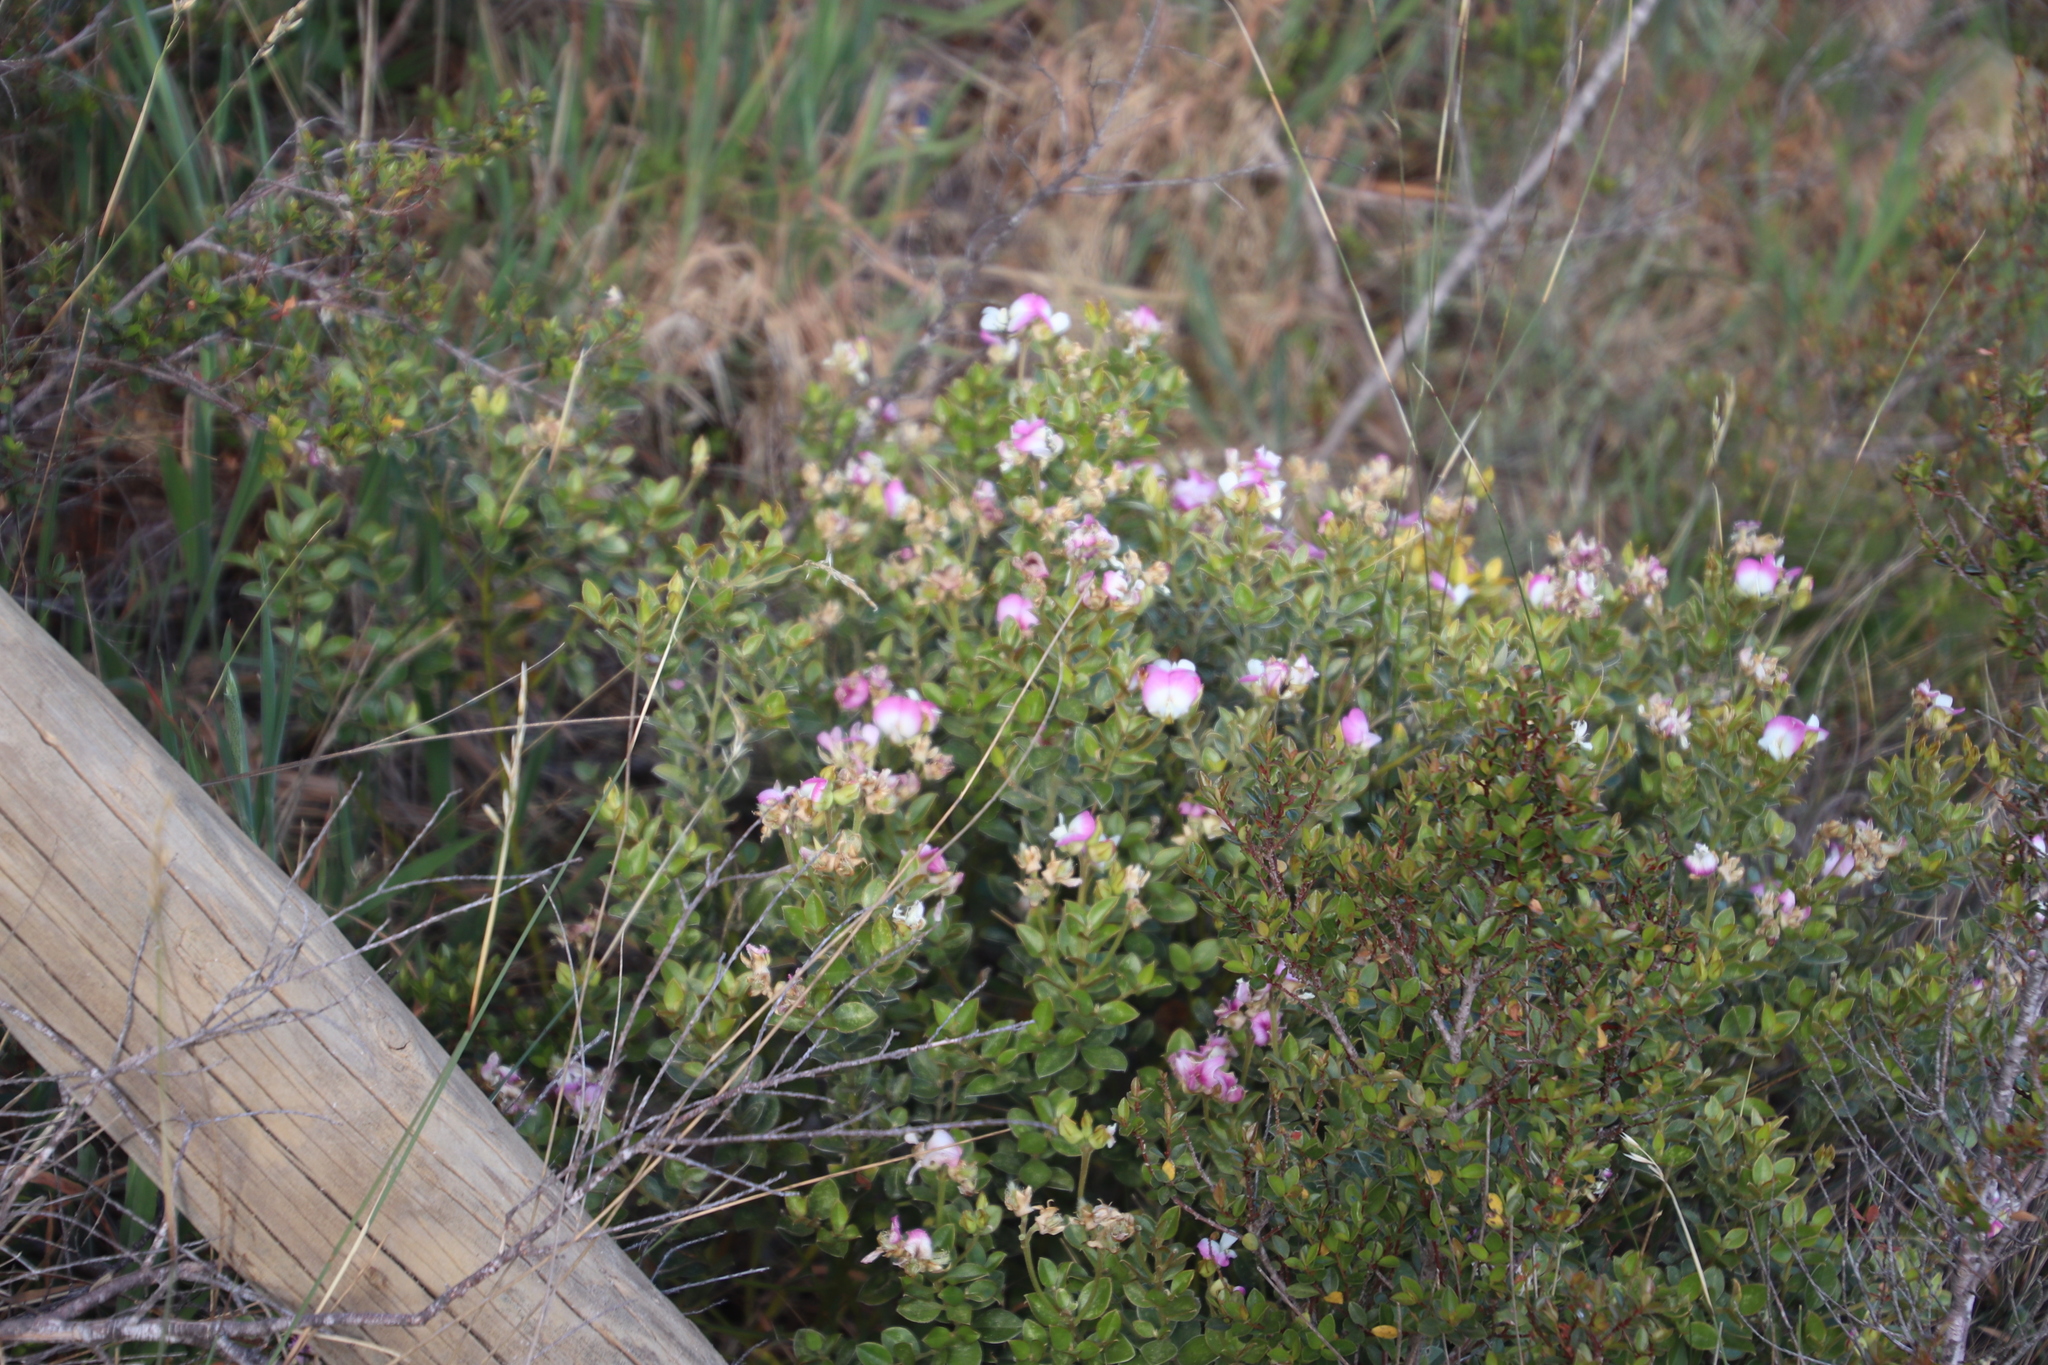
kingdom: Plantae
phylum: Tracheophyta
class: Magnoliopsida
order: Fabales
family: Fabaceae
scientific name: Fabaceae
